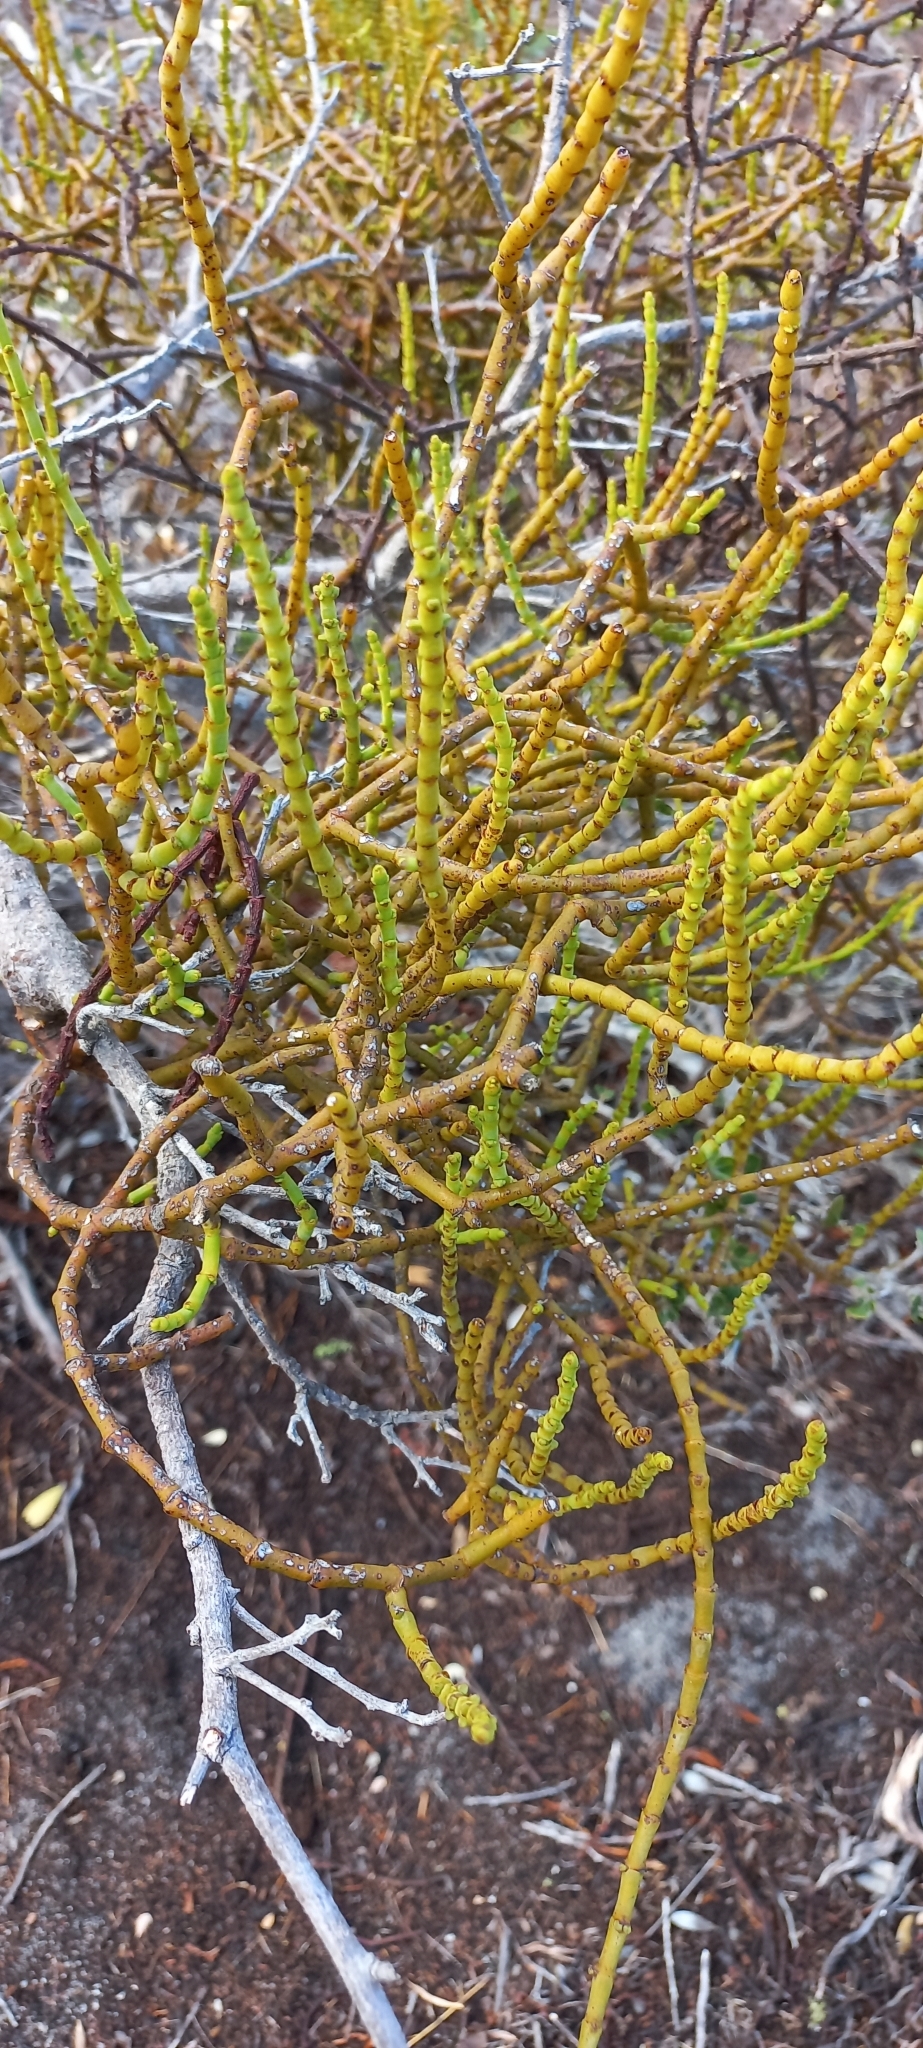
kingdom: Plantae
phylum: Tracheophyta
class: Magnoliopsida
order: Santalales
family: Viscaceae
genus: Viscum
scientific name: Viscum capense
